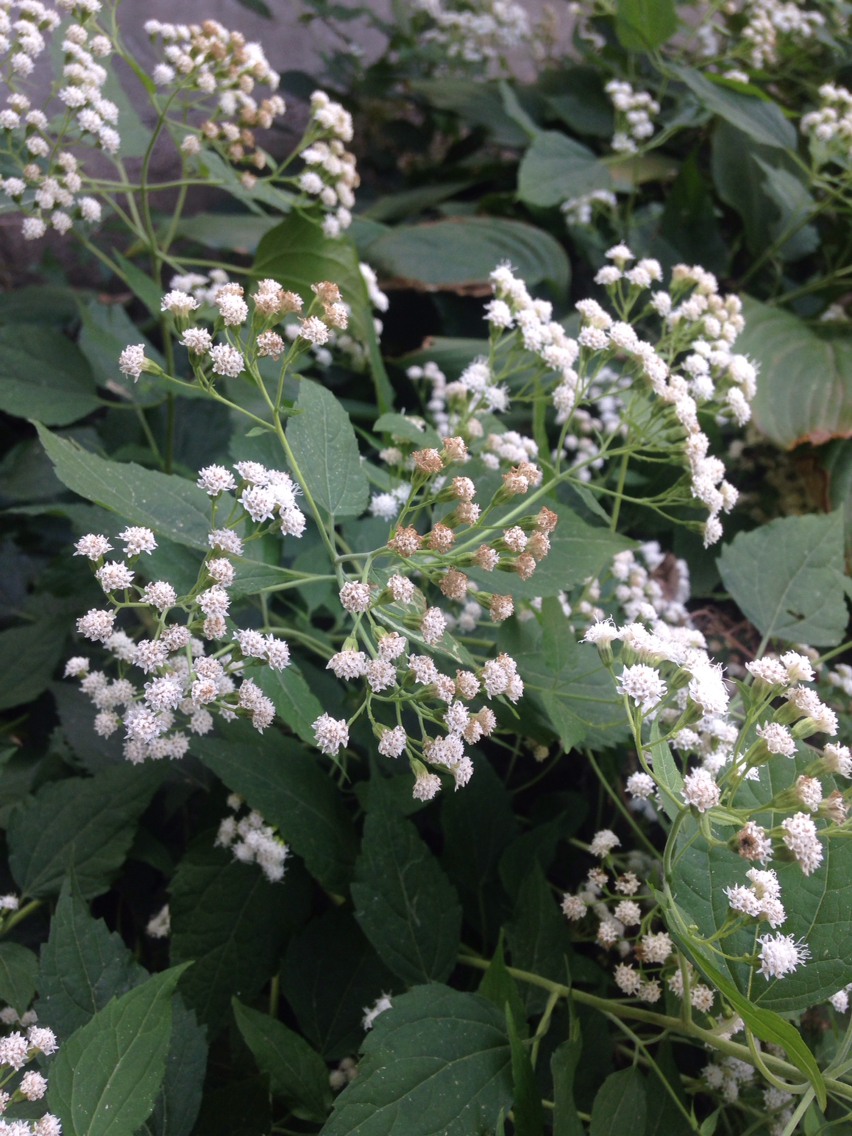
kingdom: Plantae
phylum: Tracheophyta
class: Magnoliopsida
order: Asterales
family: Asteraceae
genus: Ageratina
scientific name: Ageratina altissima
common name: White snakeroot
